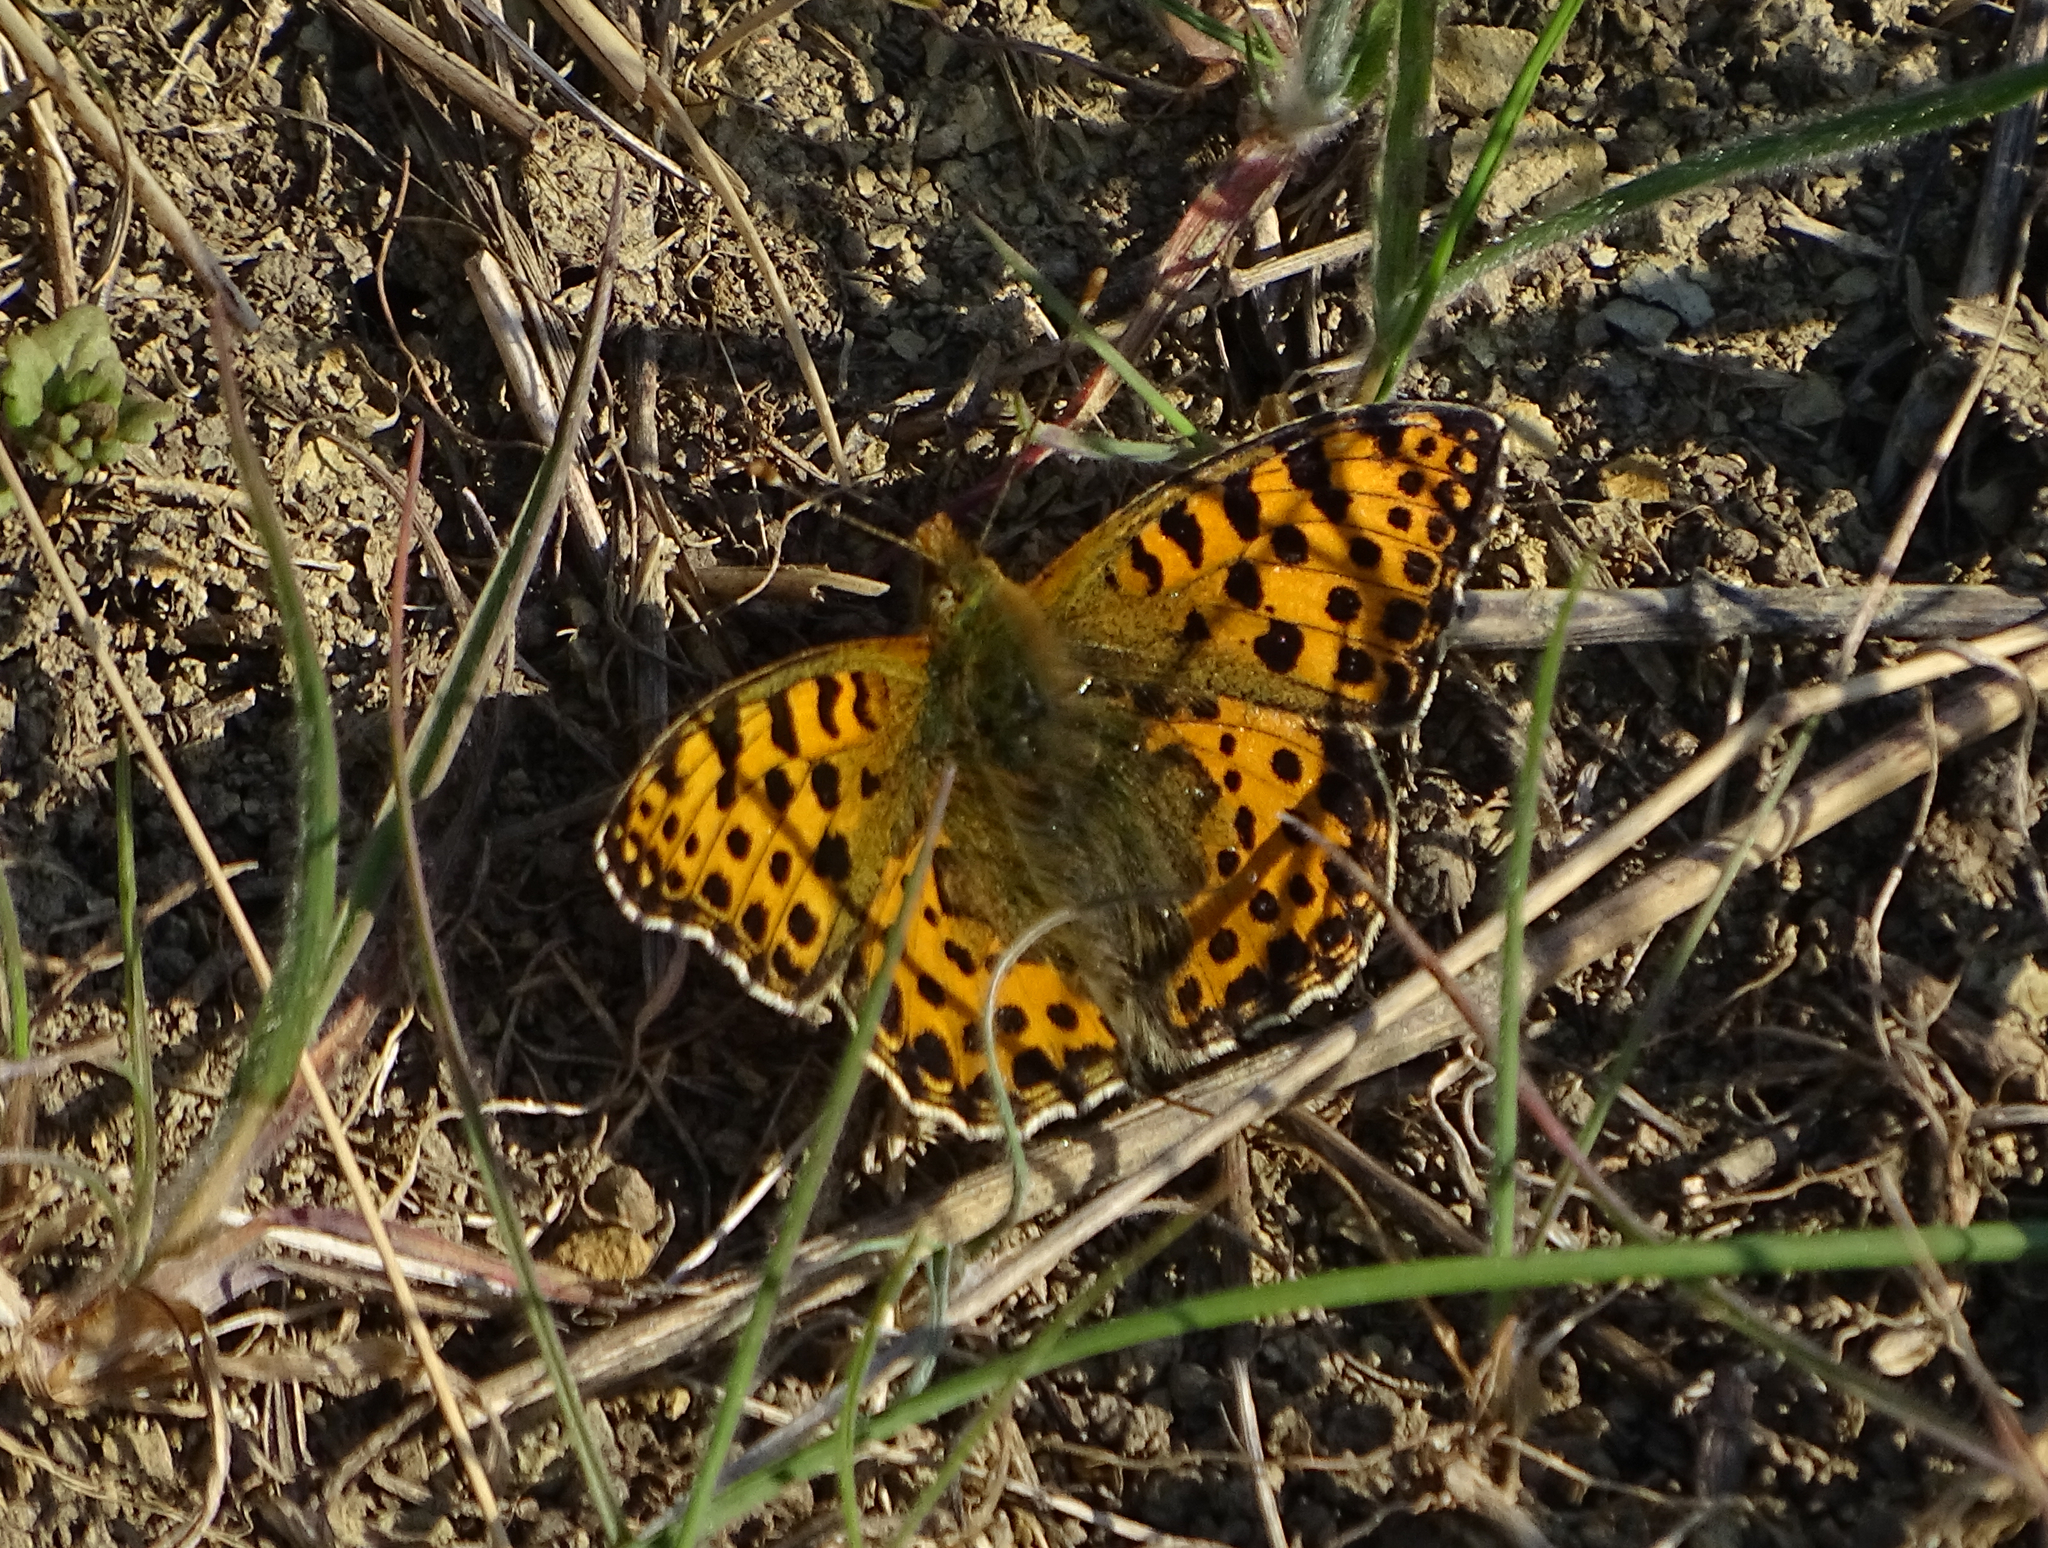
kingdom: Animalia
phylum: Arthropoda
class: Insecta
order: Lepidoptera
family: Nymphalidae
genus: Issoria
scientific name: Issoria lathonia
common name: Queen of spain fritillary
